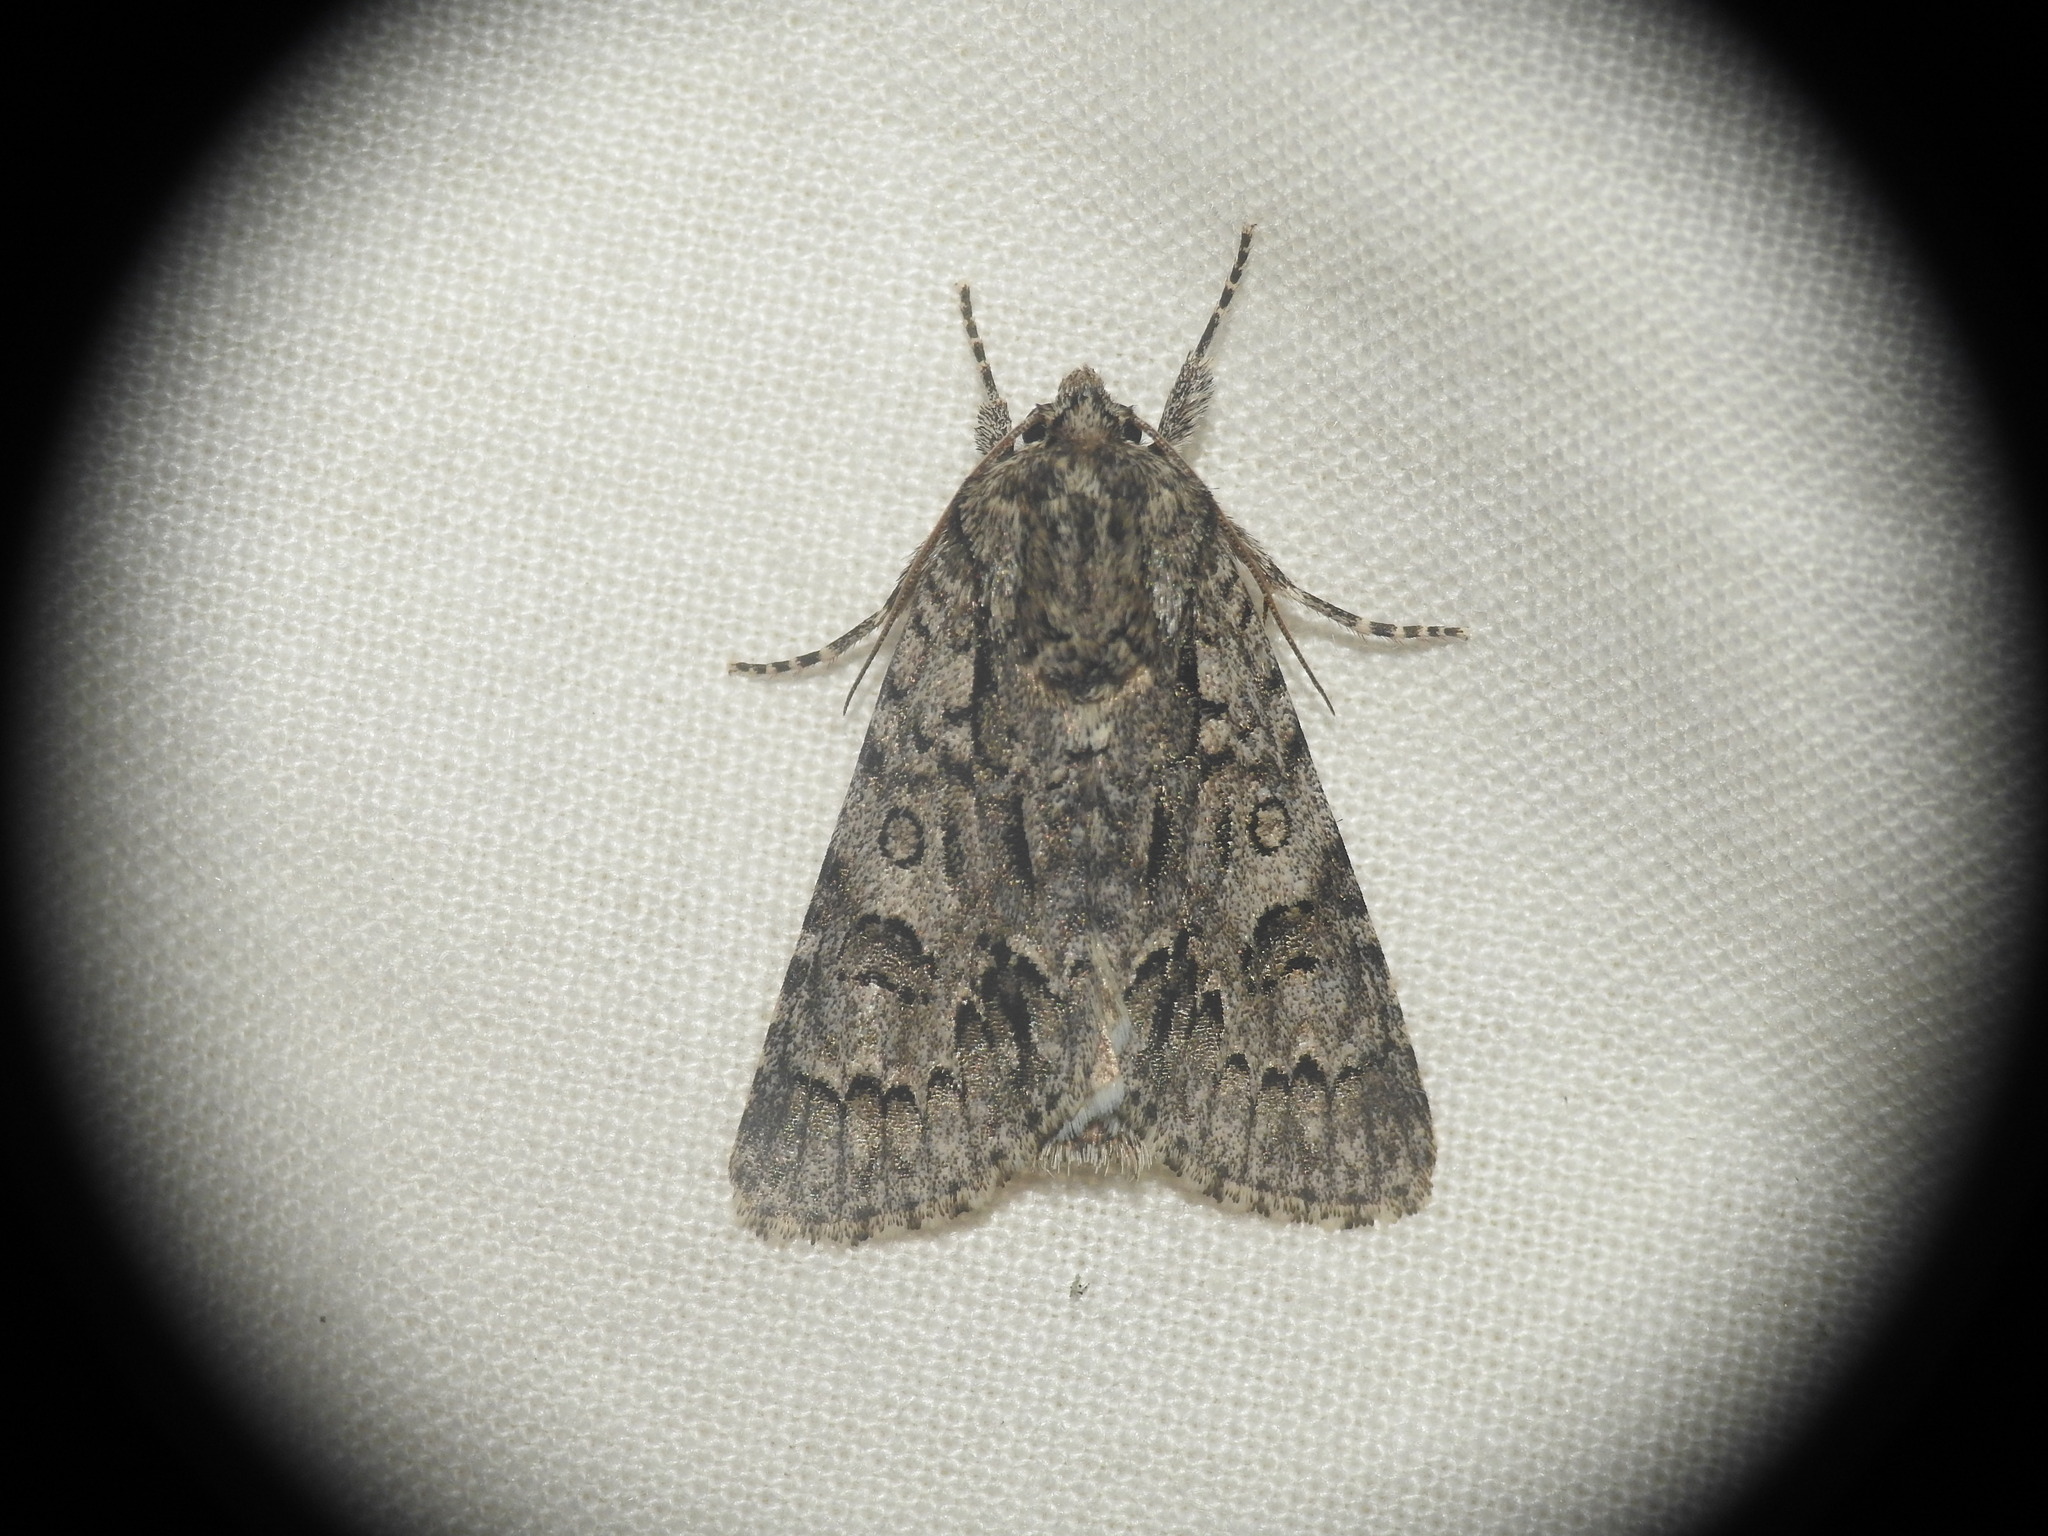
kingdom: Animalia
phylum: Arthropoda
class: Insecta
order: Lepidoptera
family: Noctuidae
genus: Acronicta
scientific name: Acronicta auricoma
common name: Scarce dagger
